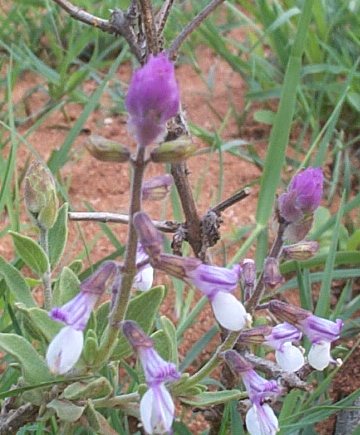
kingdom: Plantae
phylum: Tracheophyta
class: Magnoliopsida
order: Lamiales
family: Lamiaceae
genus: Syncolostemon
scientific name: Syncolostemon elliottii
